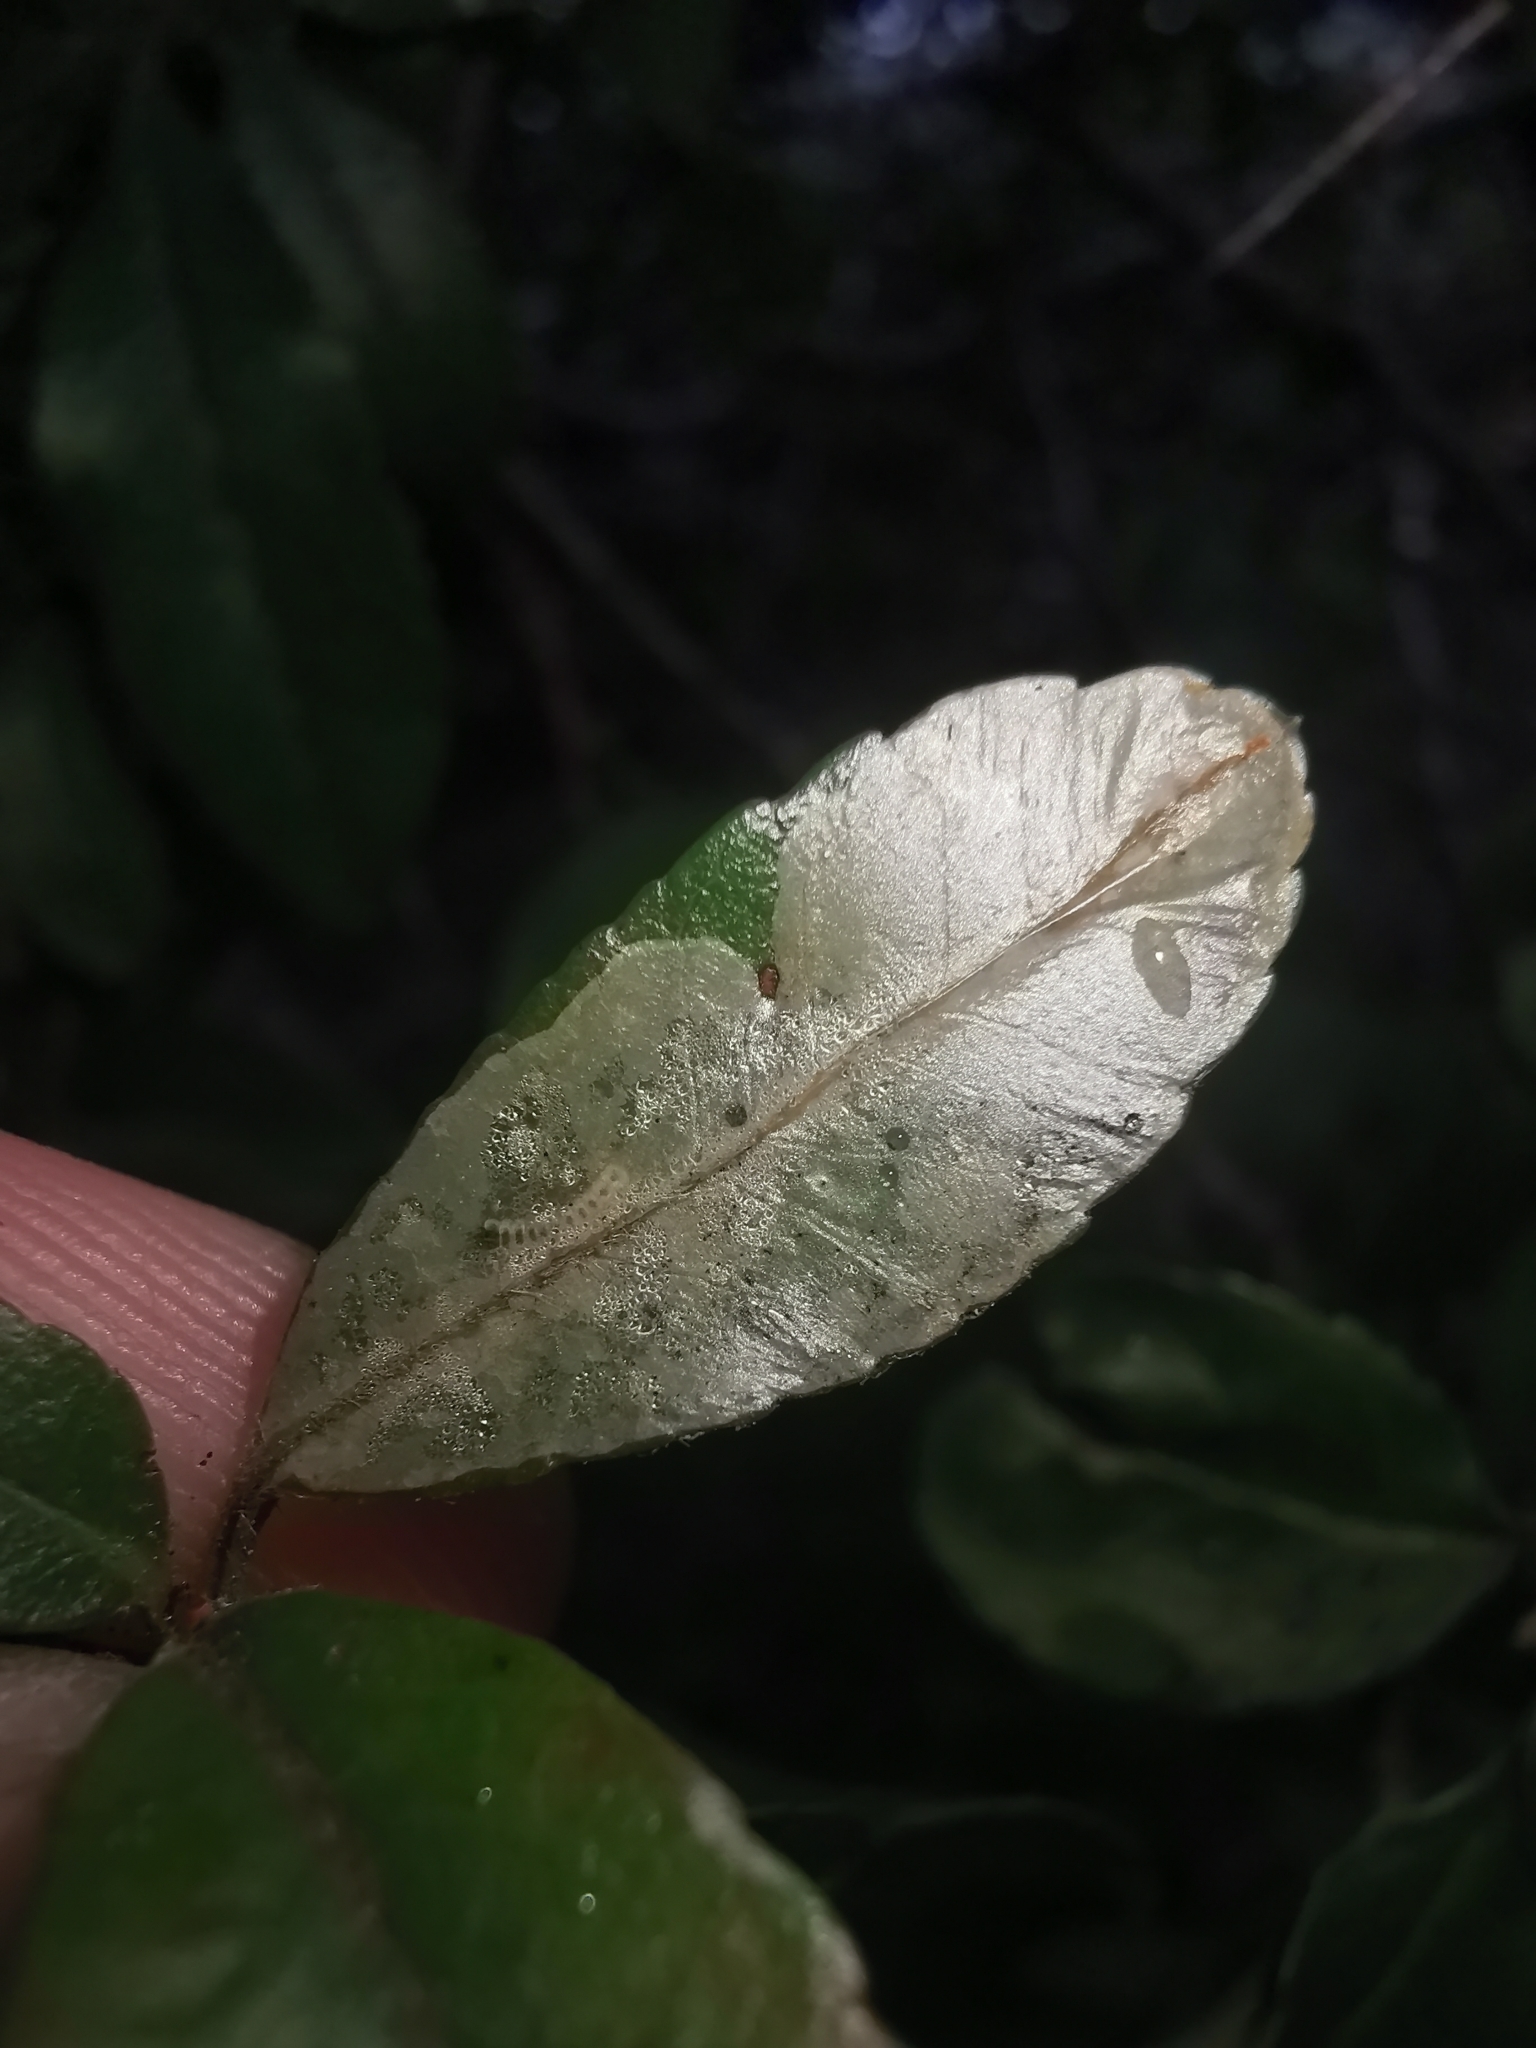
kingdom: Animalia
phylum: Arthropoda
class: Insecta
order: Lepidoptera
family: Gracillariidae
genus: Phyllonorycter
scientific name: Phyllonorycter leucographella
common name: Firethorn leaf-miner
